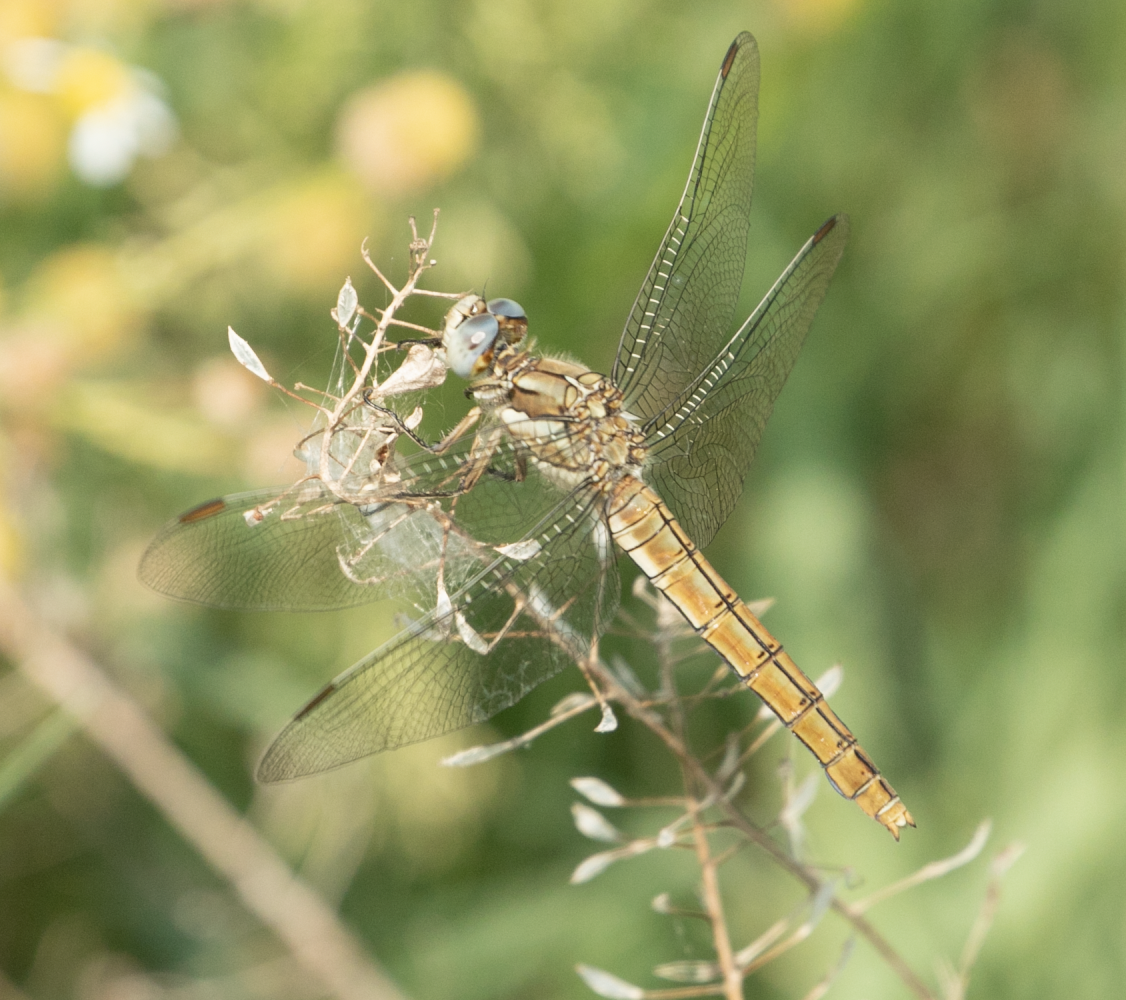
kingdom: Animalia
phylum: Arthropoda
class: Insecta
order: Odonata
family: Libellulidae
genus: Orthetrum
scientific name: Orthetrum brunneum
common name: Southern skimmer
